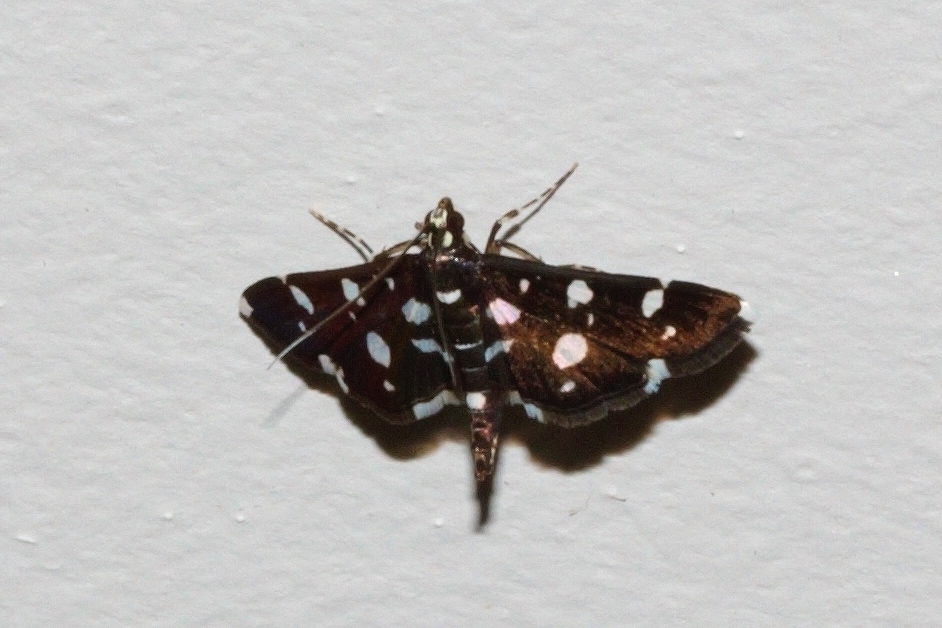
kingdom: Animalia
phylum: Arthropoda
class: Insecta
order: Lepidoptera
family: Crambidae
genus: Bocchoris
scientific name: Bocchoris inspersalis
